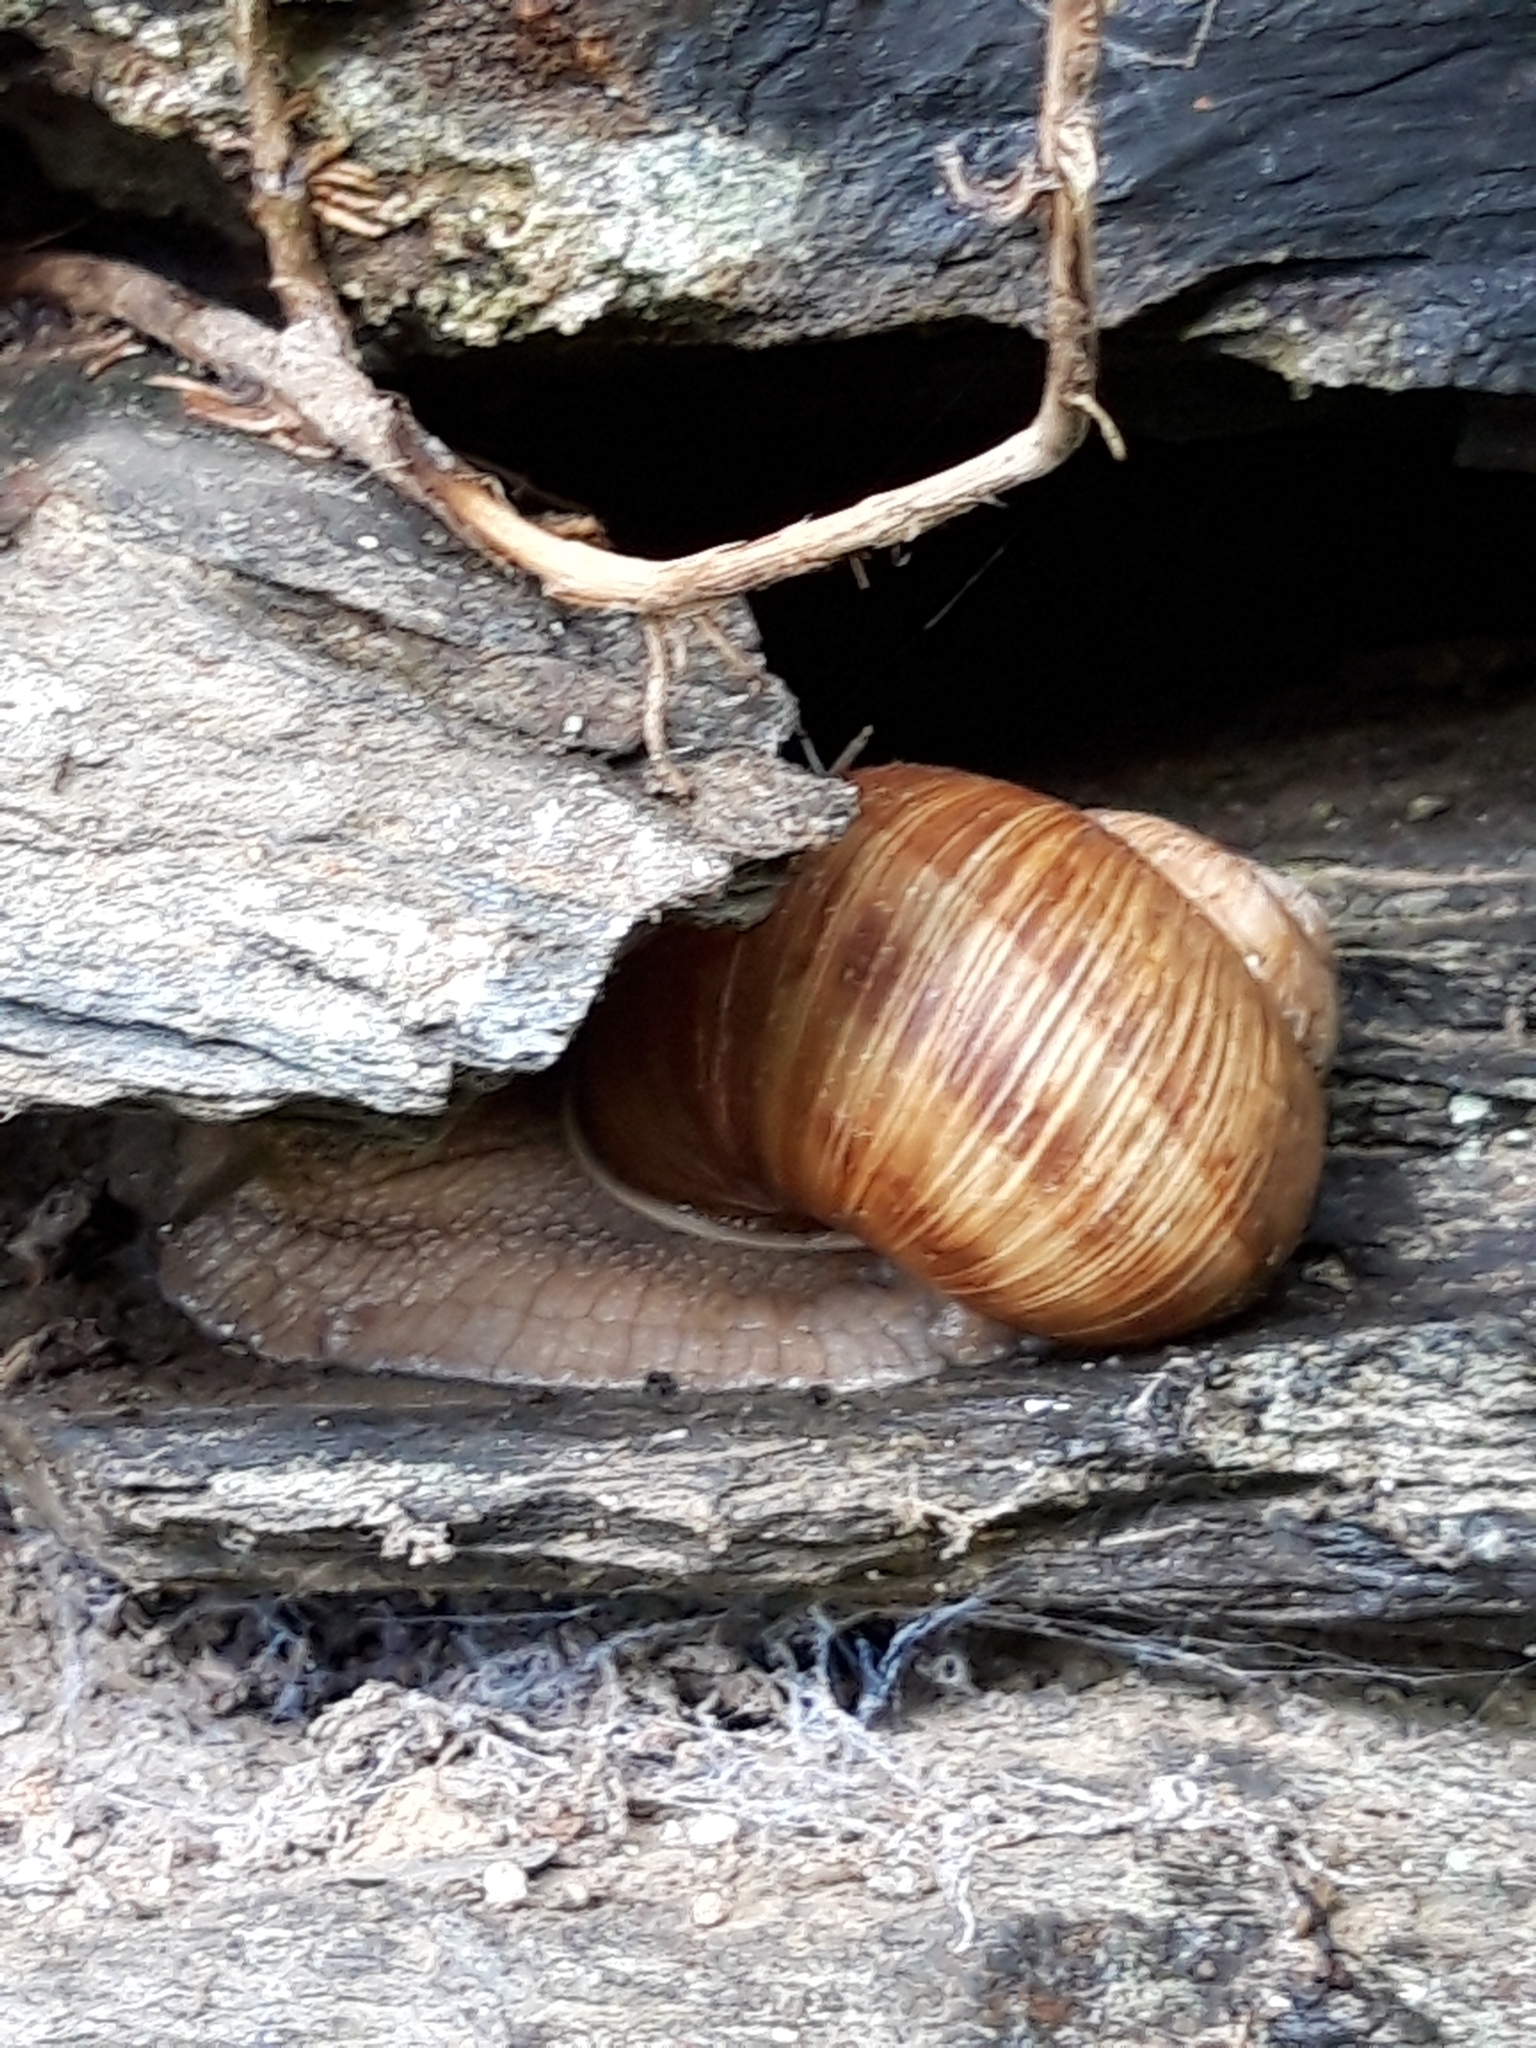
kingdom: Animalia
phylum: Mollusca
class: Gastropoda
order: Stylommatophora
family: Helicidae
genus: Helix
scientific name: Helix pomatia
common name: Roman snail
